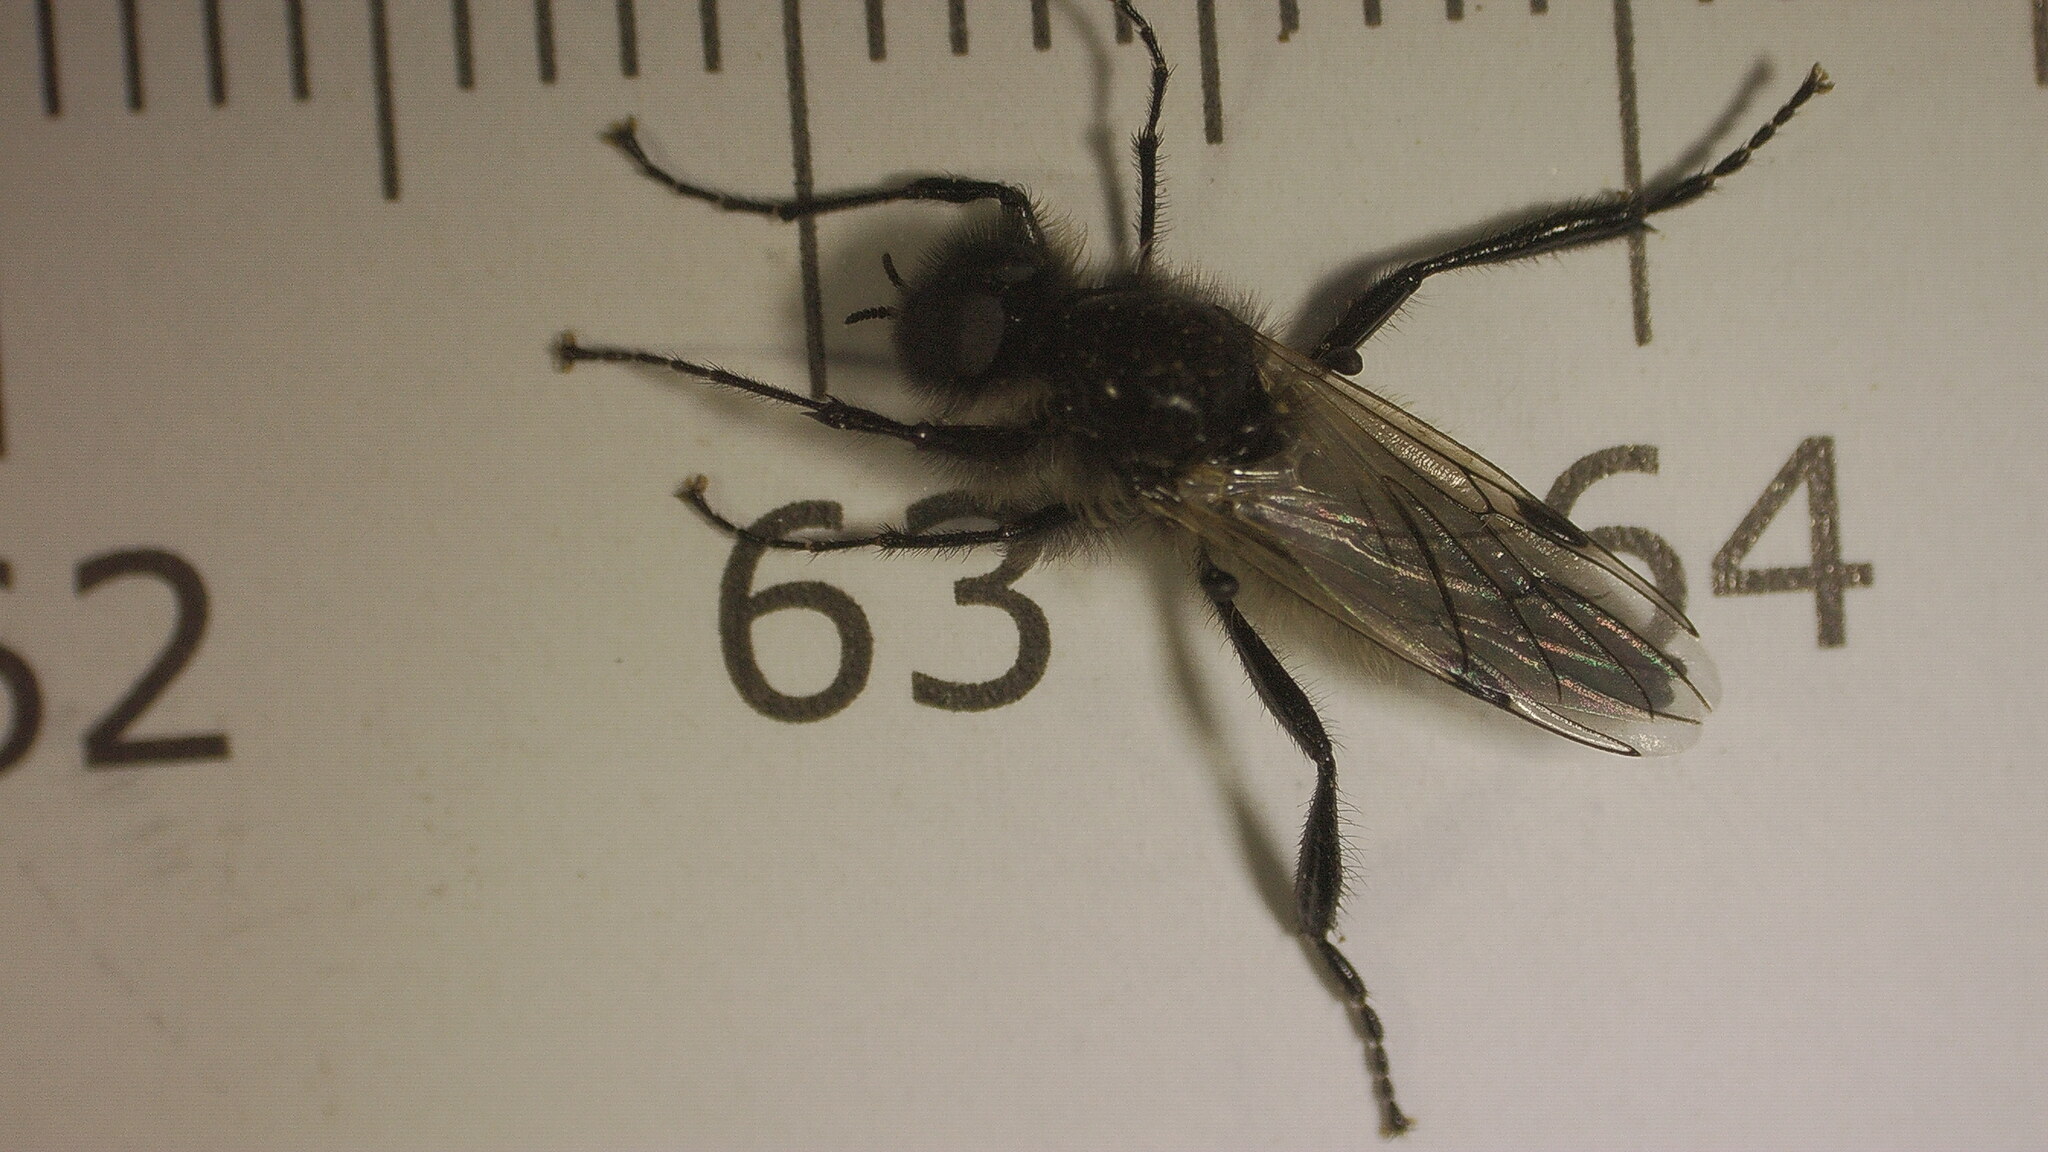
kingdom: Animalia
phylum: Arthropoda
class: Insecta
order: Diptera
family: Bibionidae
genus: Bibio
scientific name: Bibio albipennis
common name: White-winged march fly
